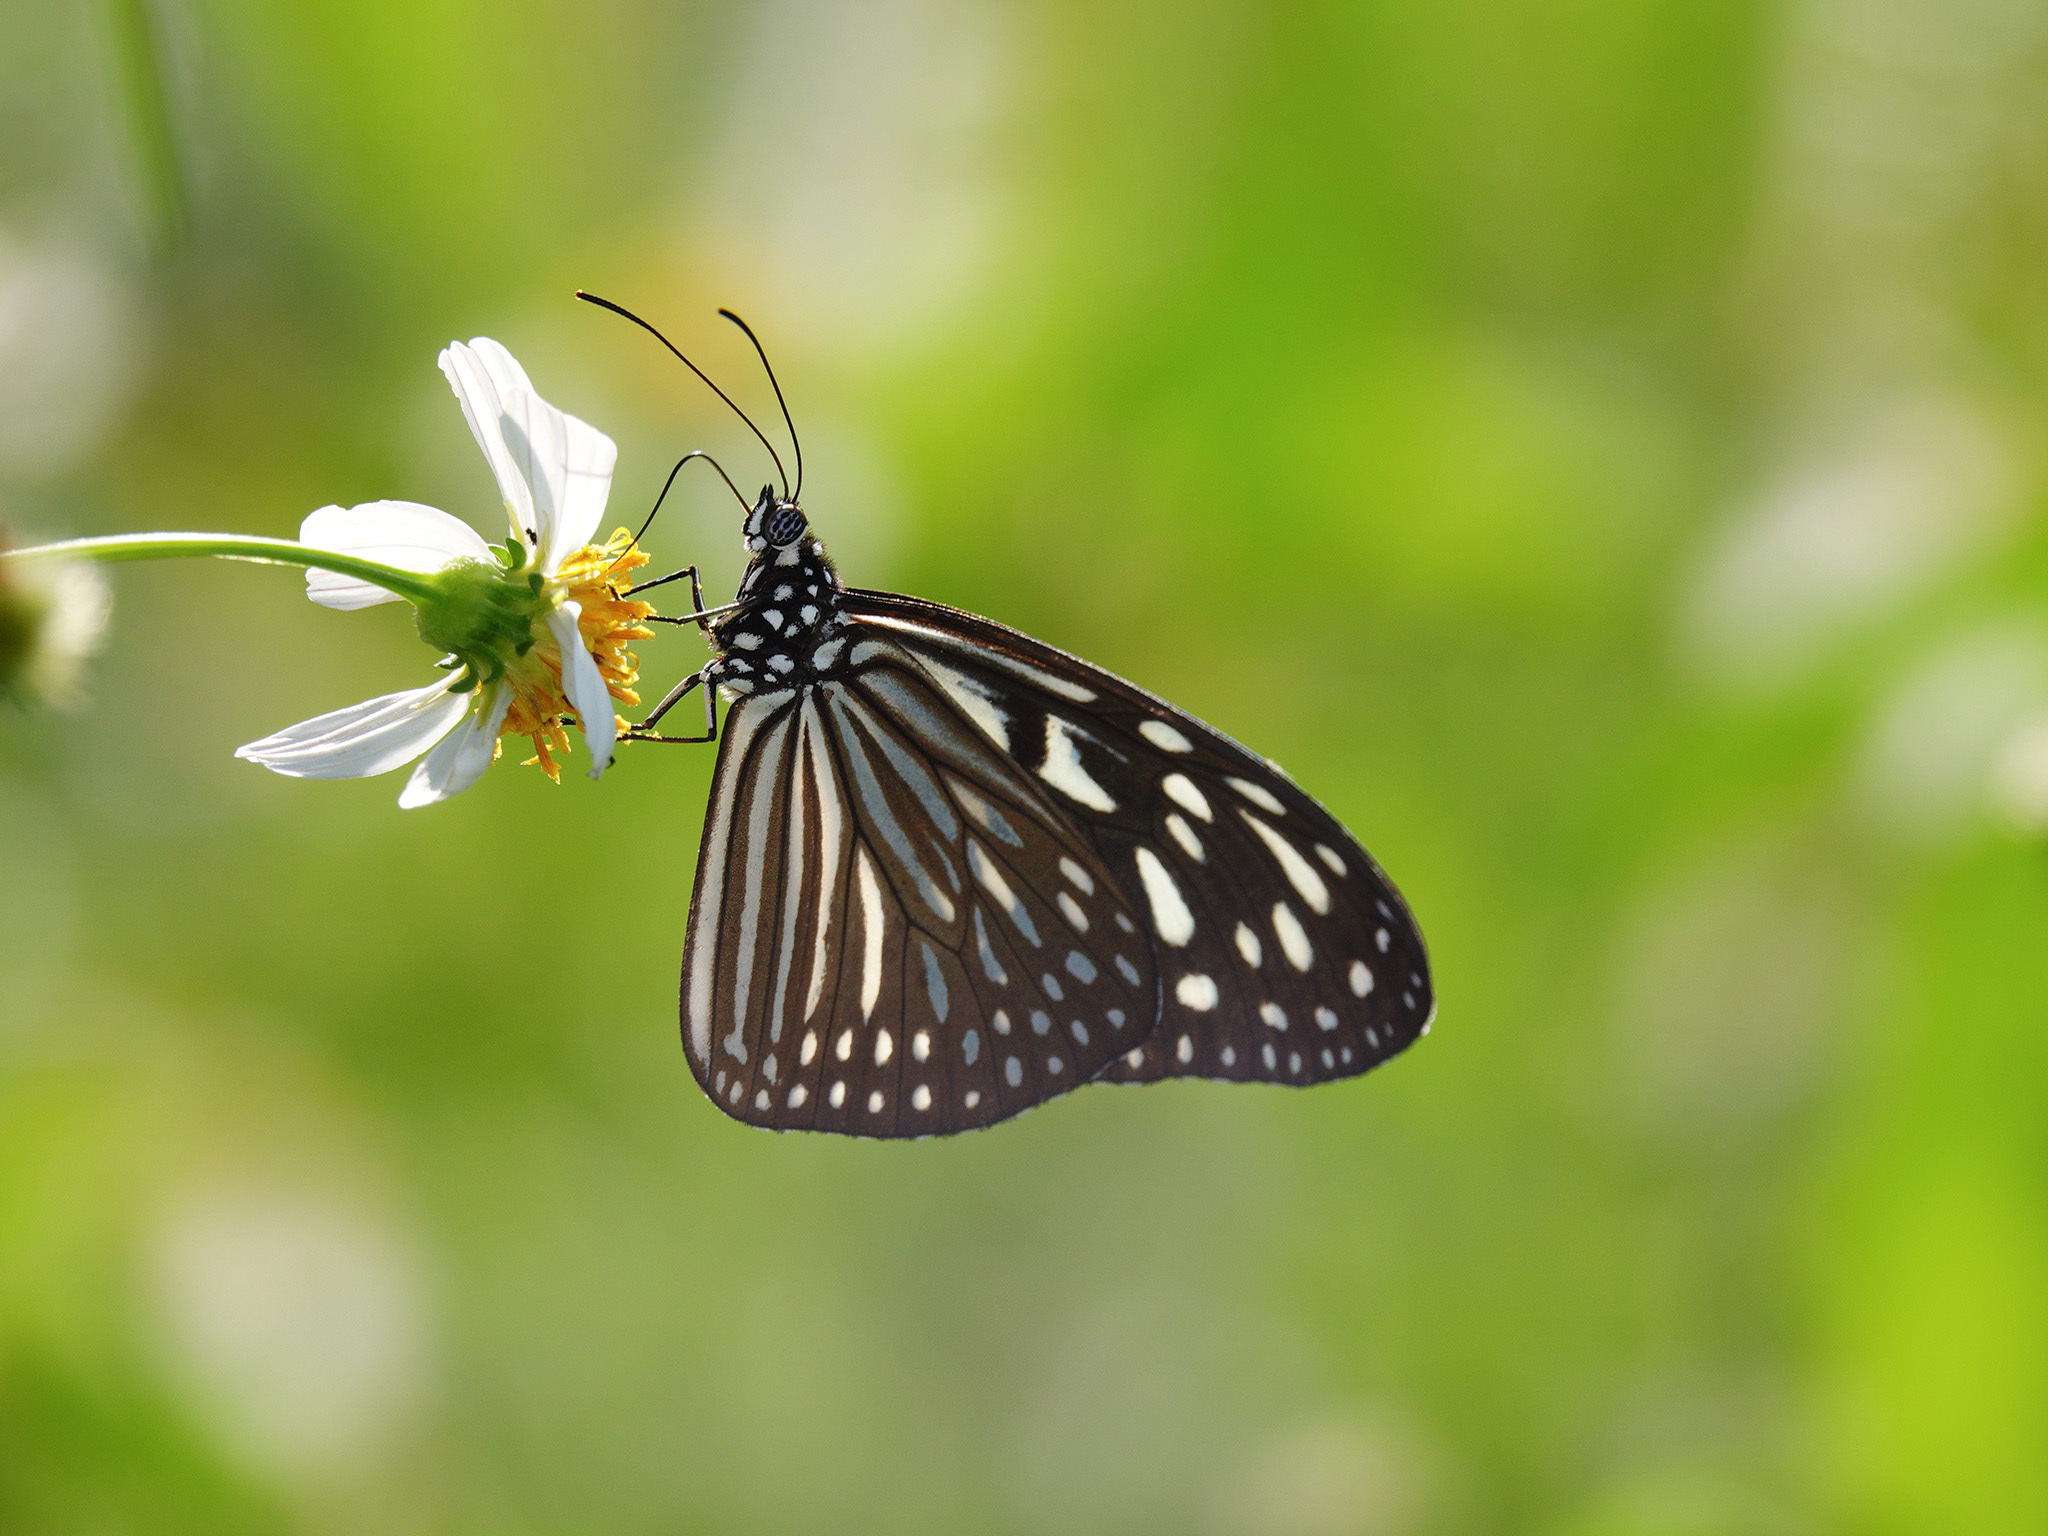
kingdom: Animalia
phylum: Arthropoda
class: Insecta
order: Lepidoptera
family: Nymphalidae
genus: Ideopsis
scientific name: Ideopsis vulgaris
